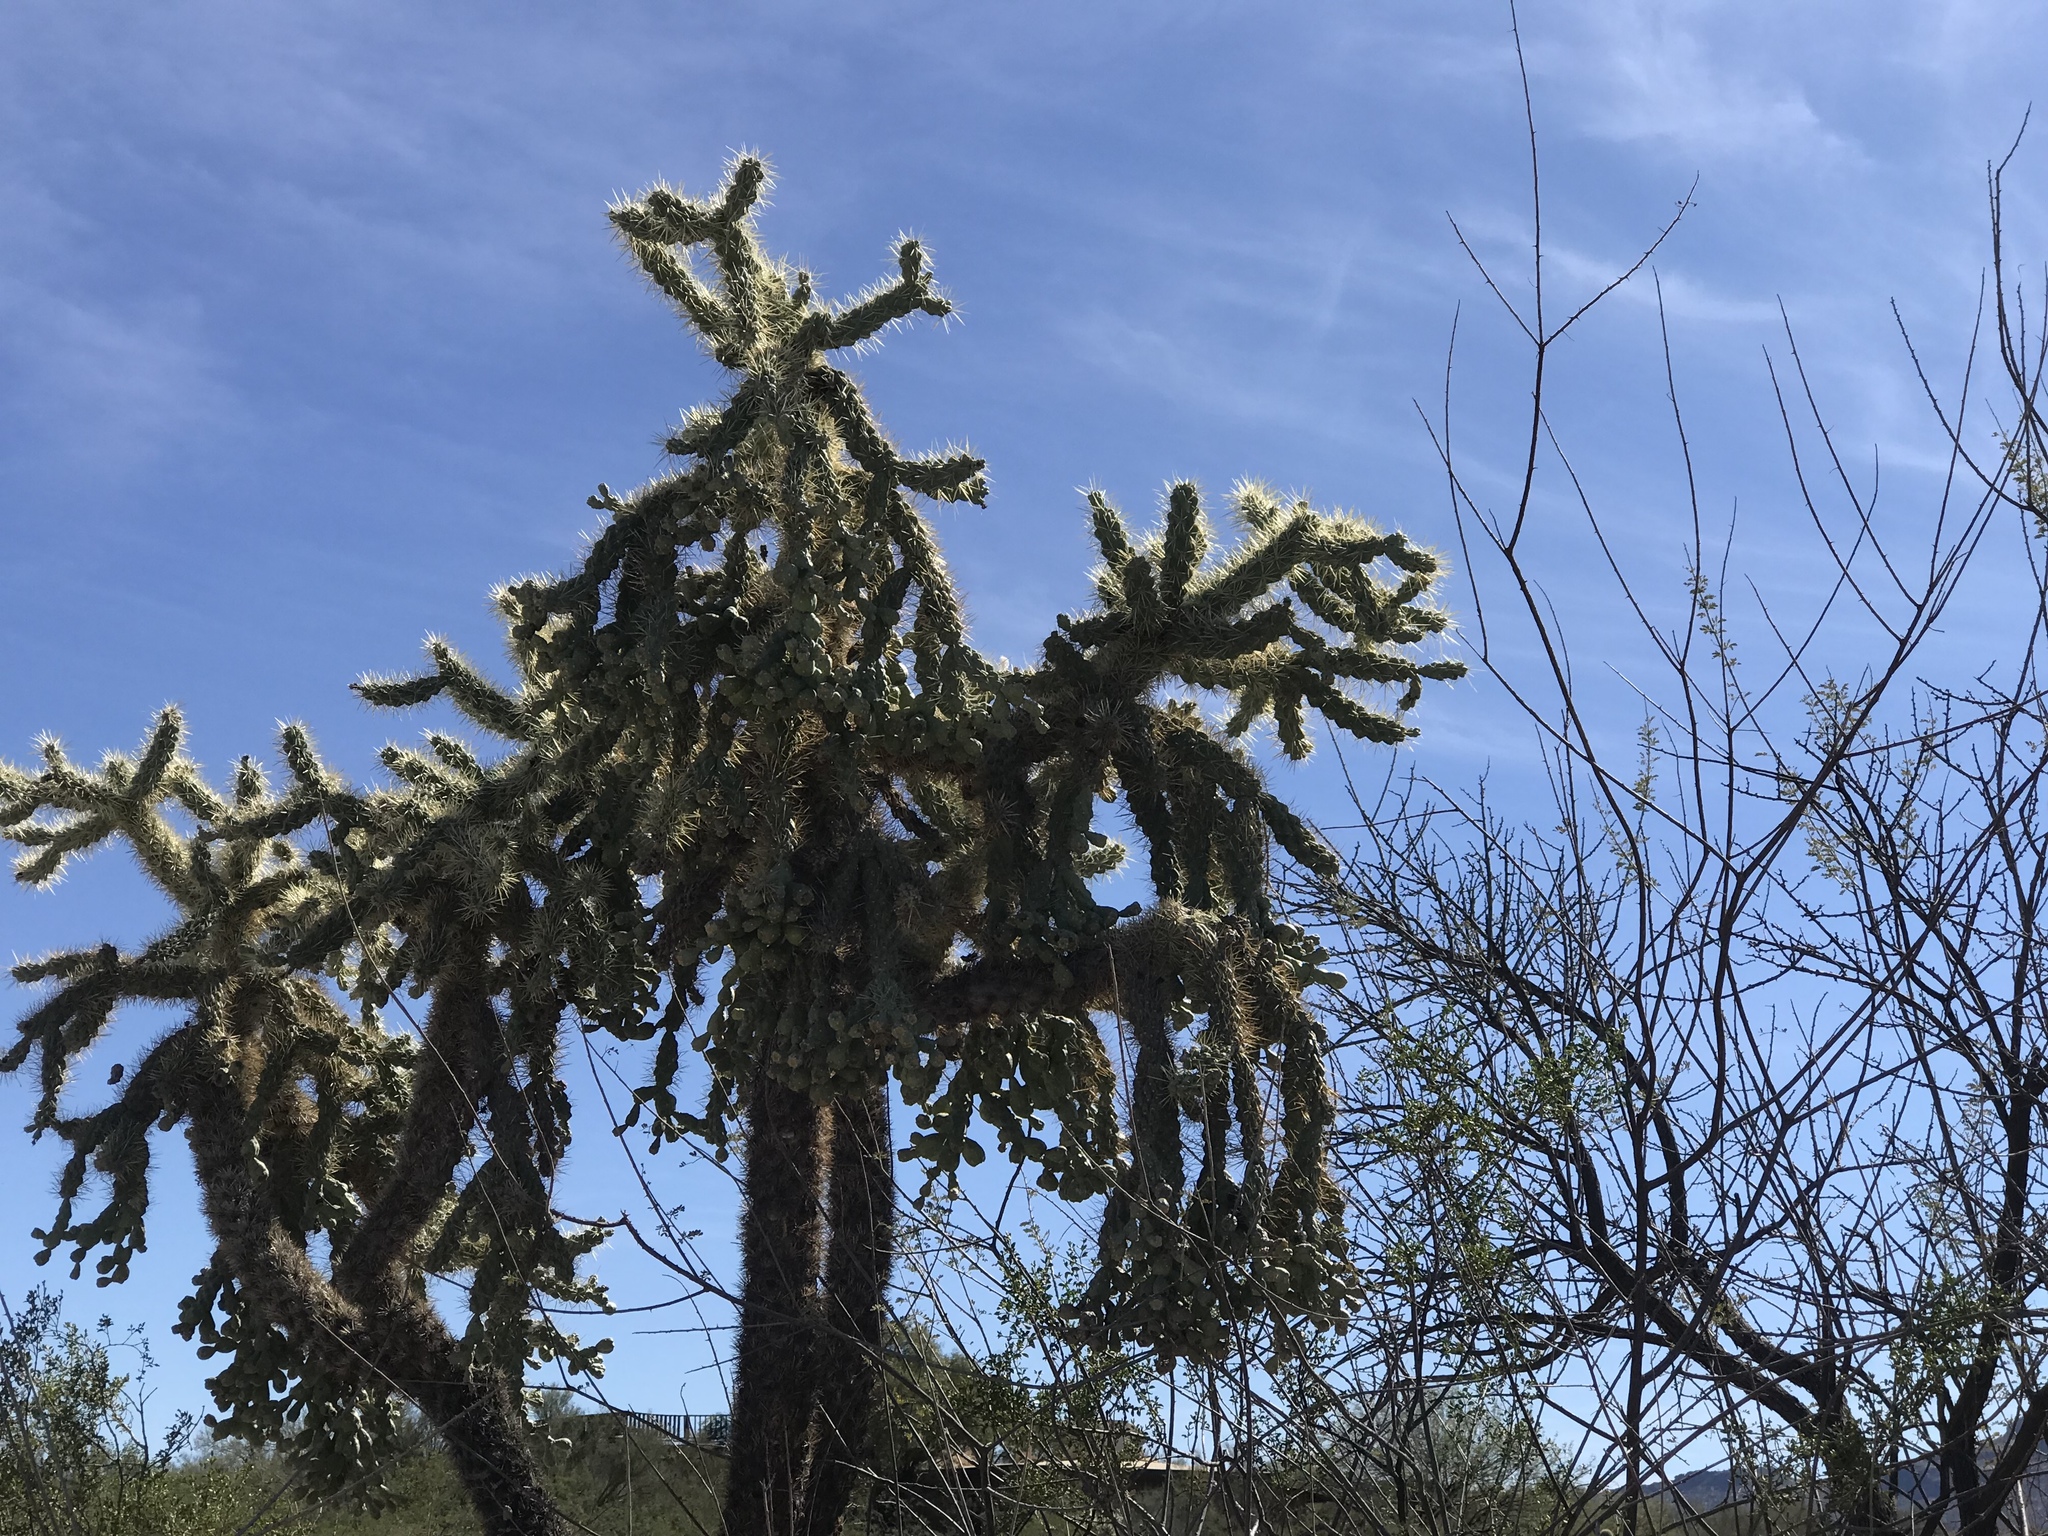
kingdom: Plantae
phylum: Tracheophyta
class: Magnoliopsida
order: Caryophyllales
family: Cactaceae
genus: Cylindropuntia
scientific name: Cylindropuntia fulgida
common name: Jumping cholla
